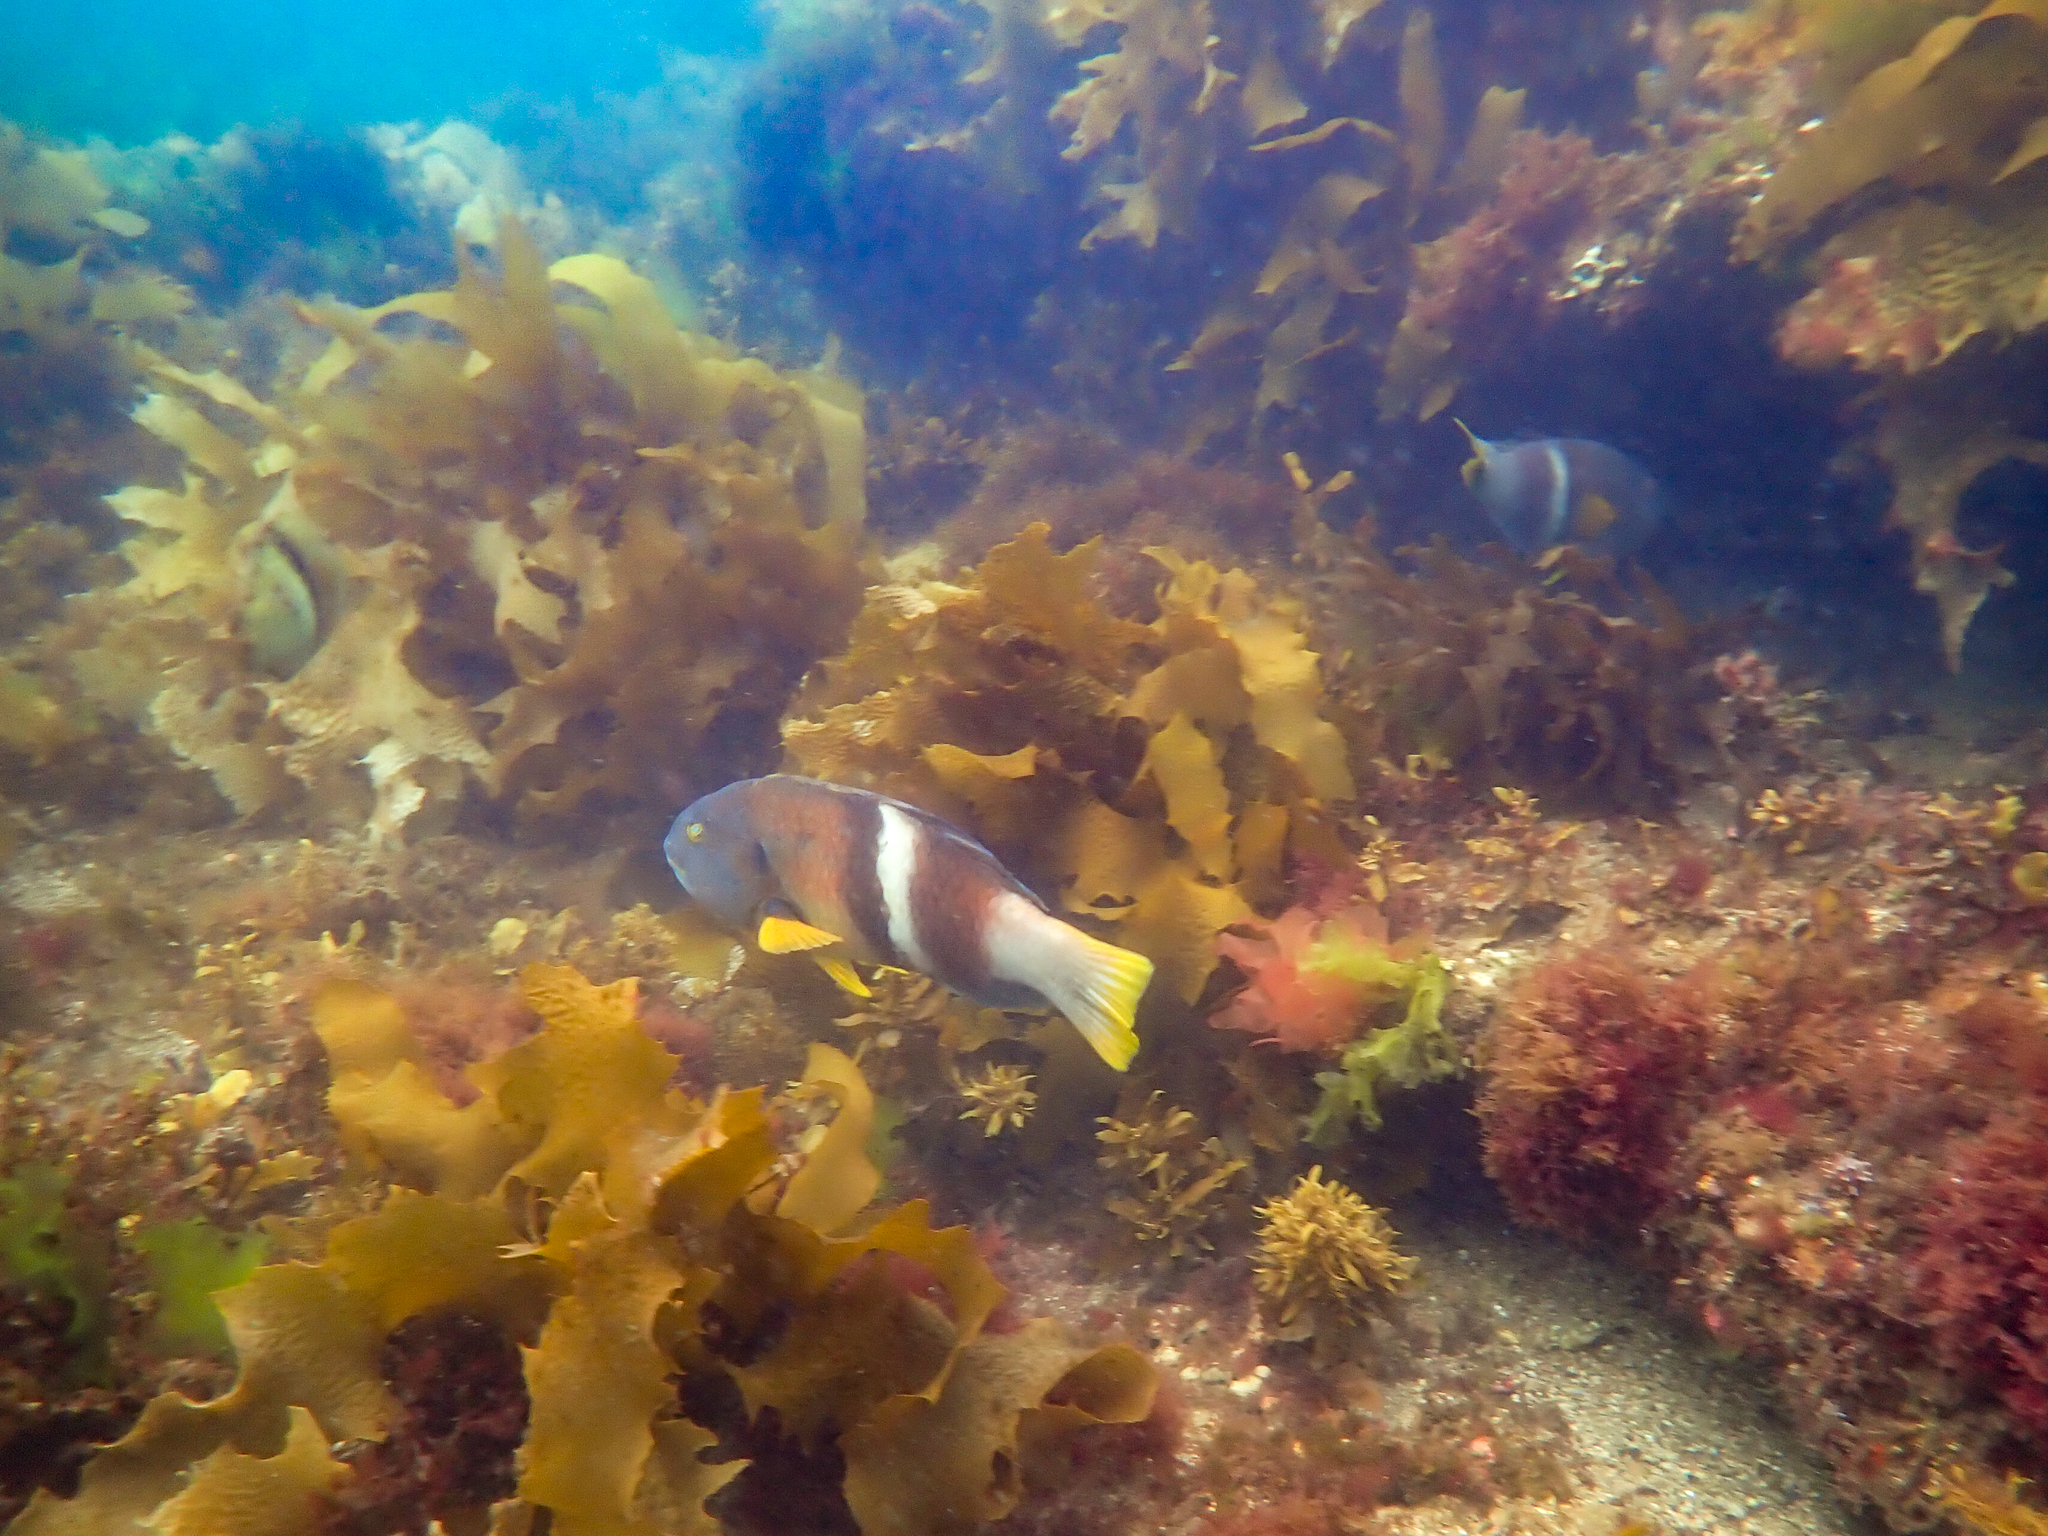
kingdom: Animalia
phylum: Chordata
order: Perciformes
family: Labridae
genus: Notolabrus
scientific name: Notolabrus tetricus
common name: Blue-throated parrotfish
